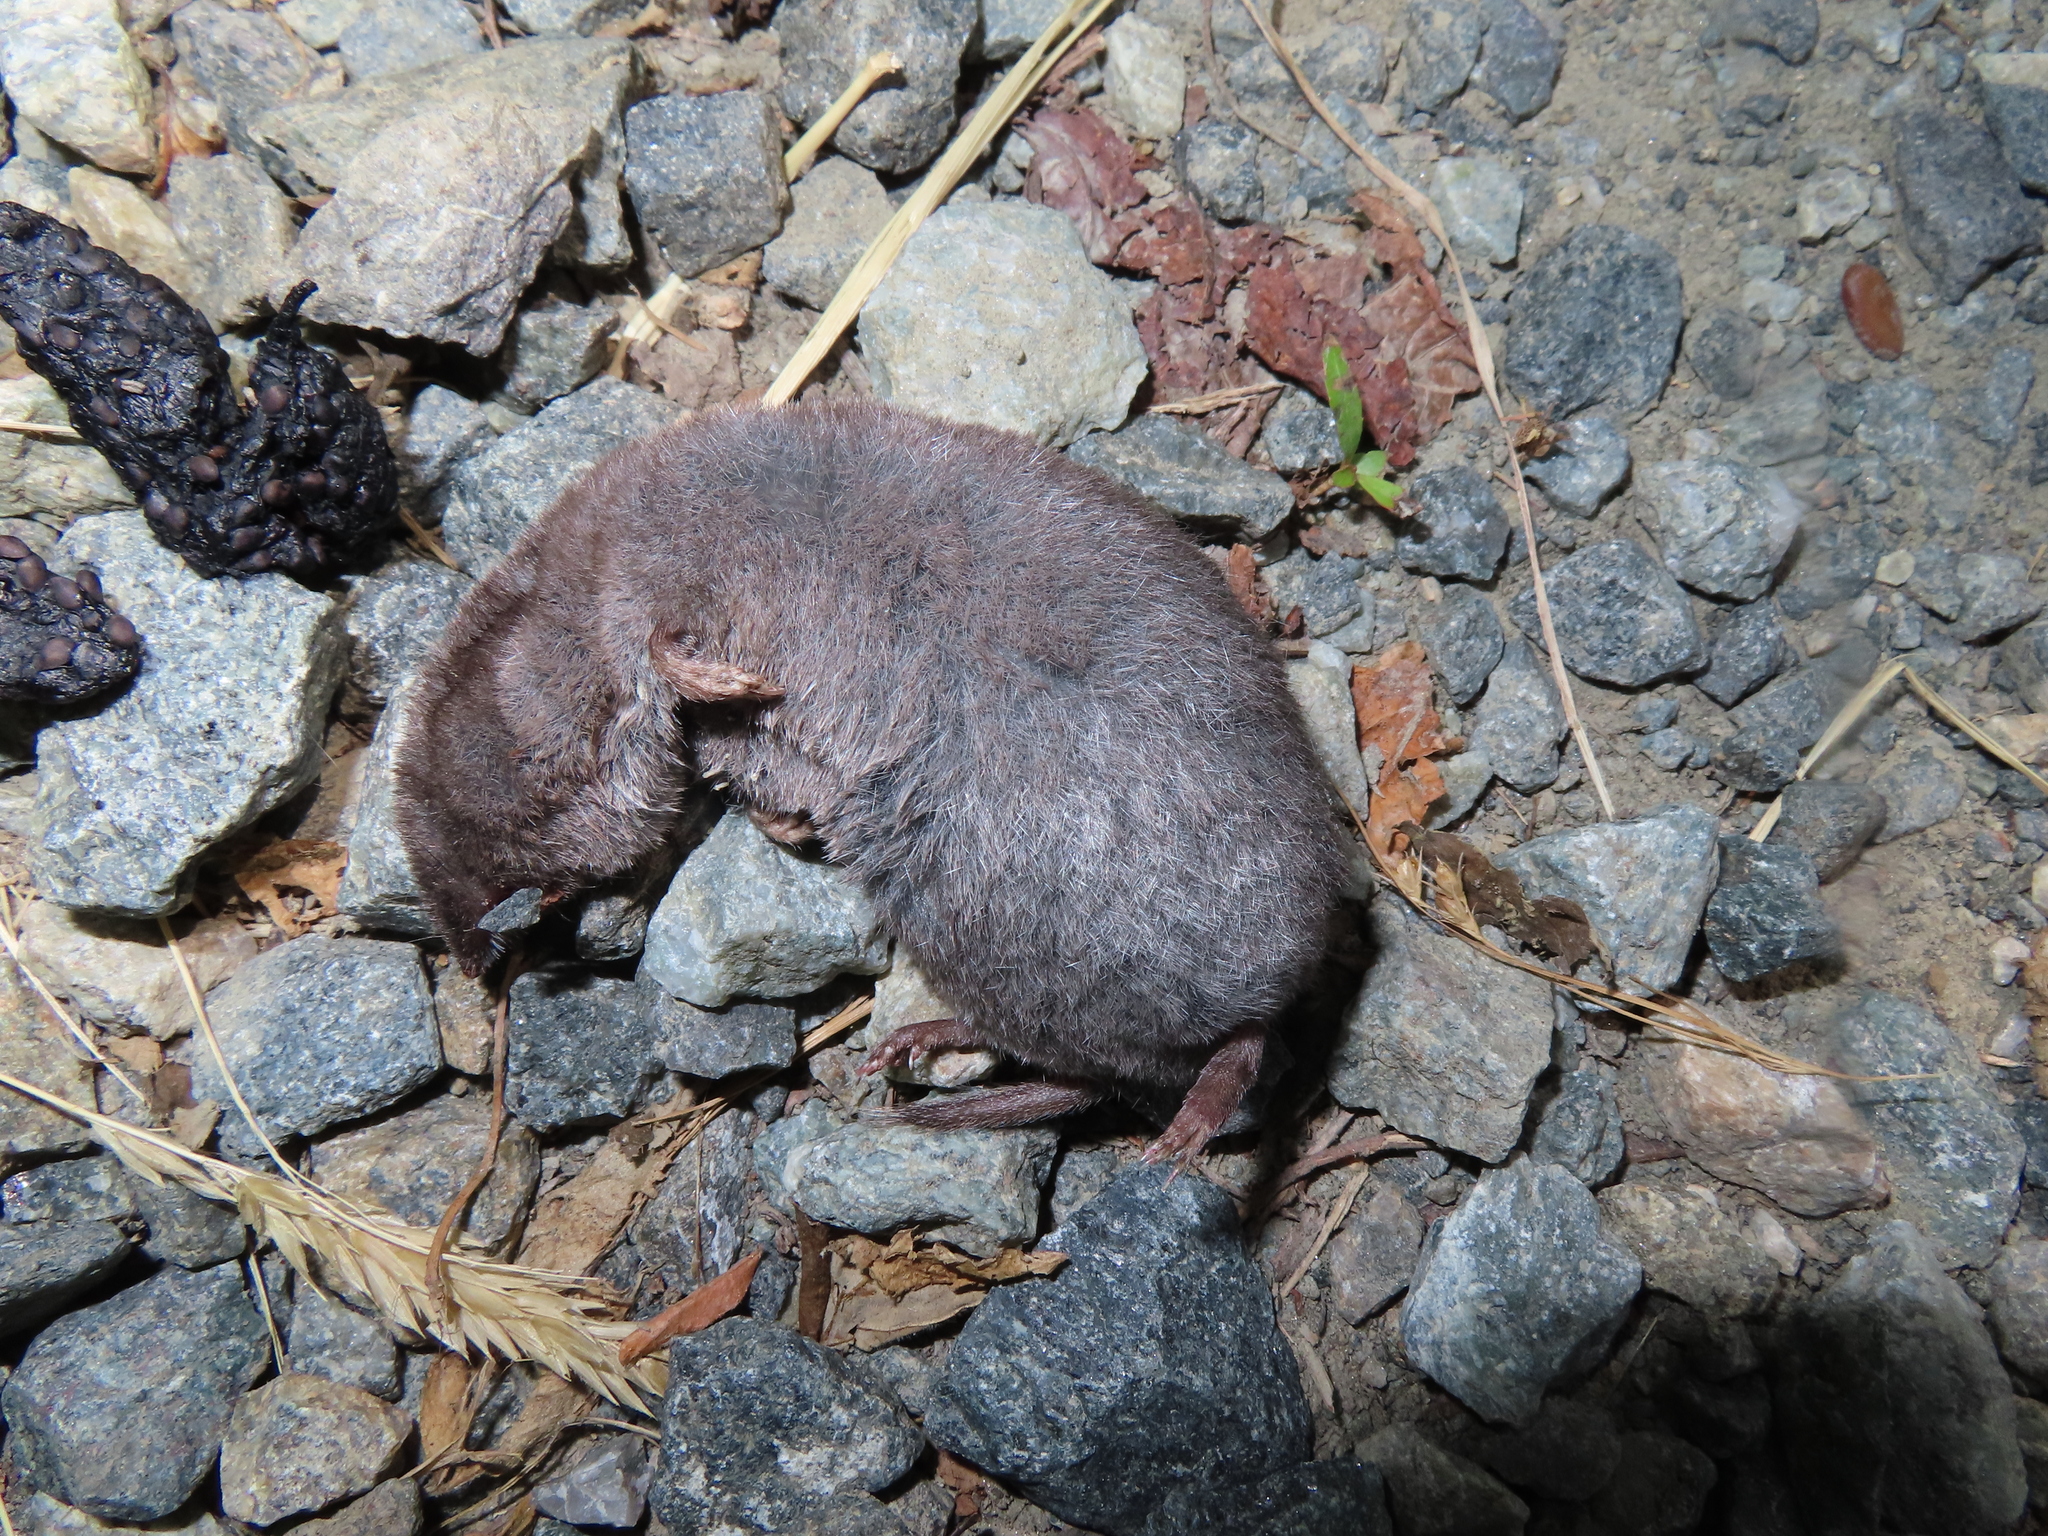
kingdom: Animalia
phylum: Chordata
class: Mammalia
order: Soricomorpha
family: Soricidae
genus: Blarina
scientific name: Blarina brevicauda
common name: Northern short-tailed shrew
